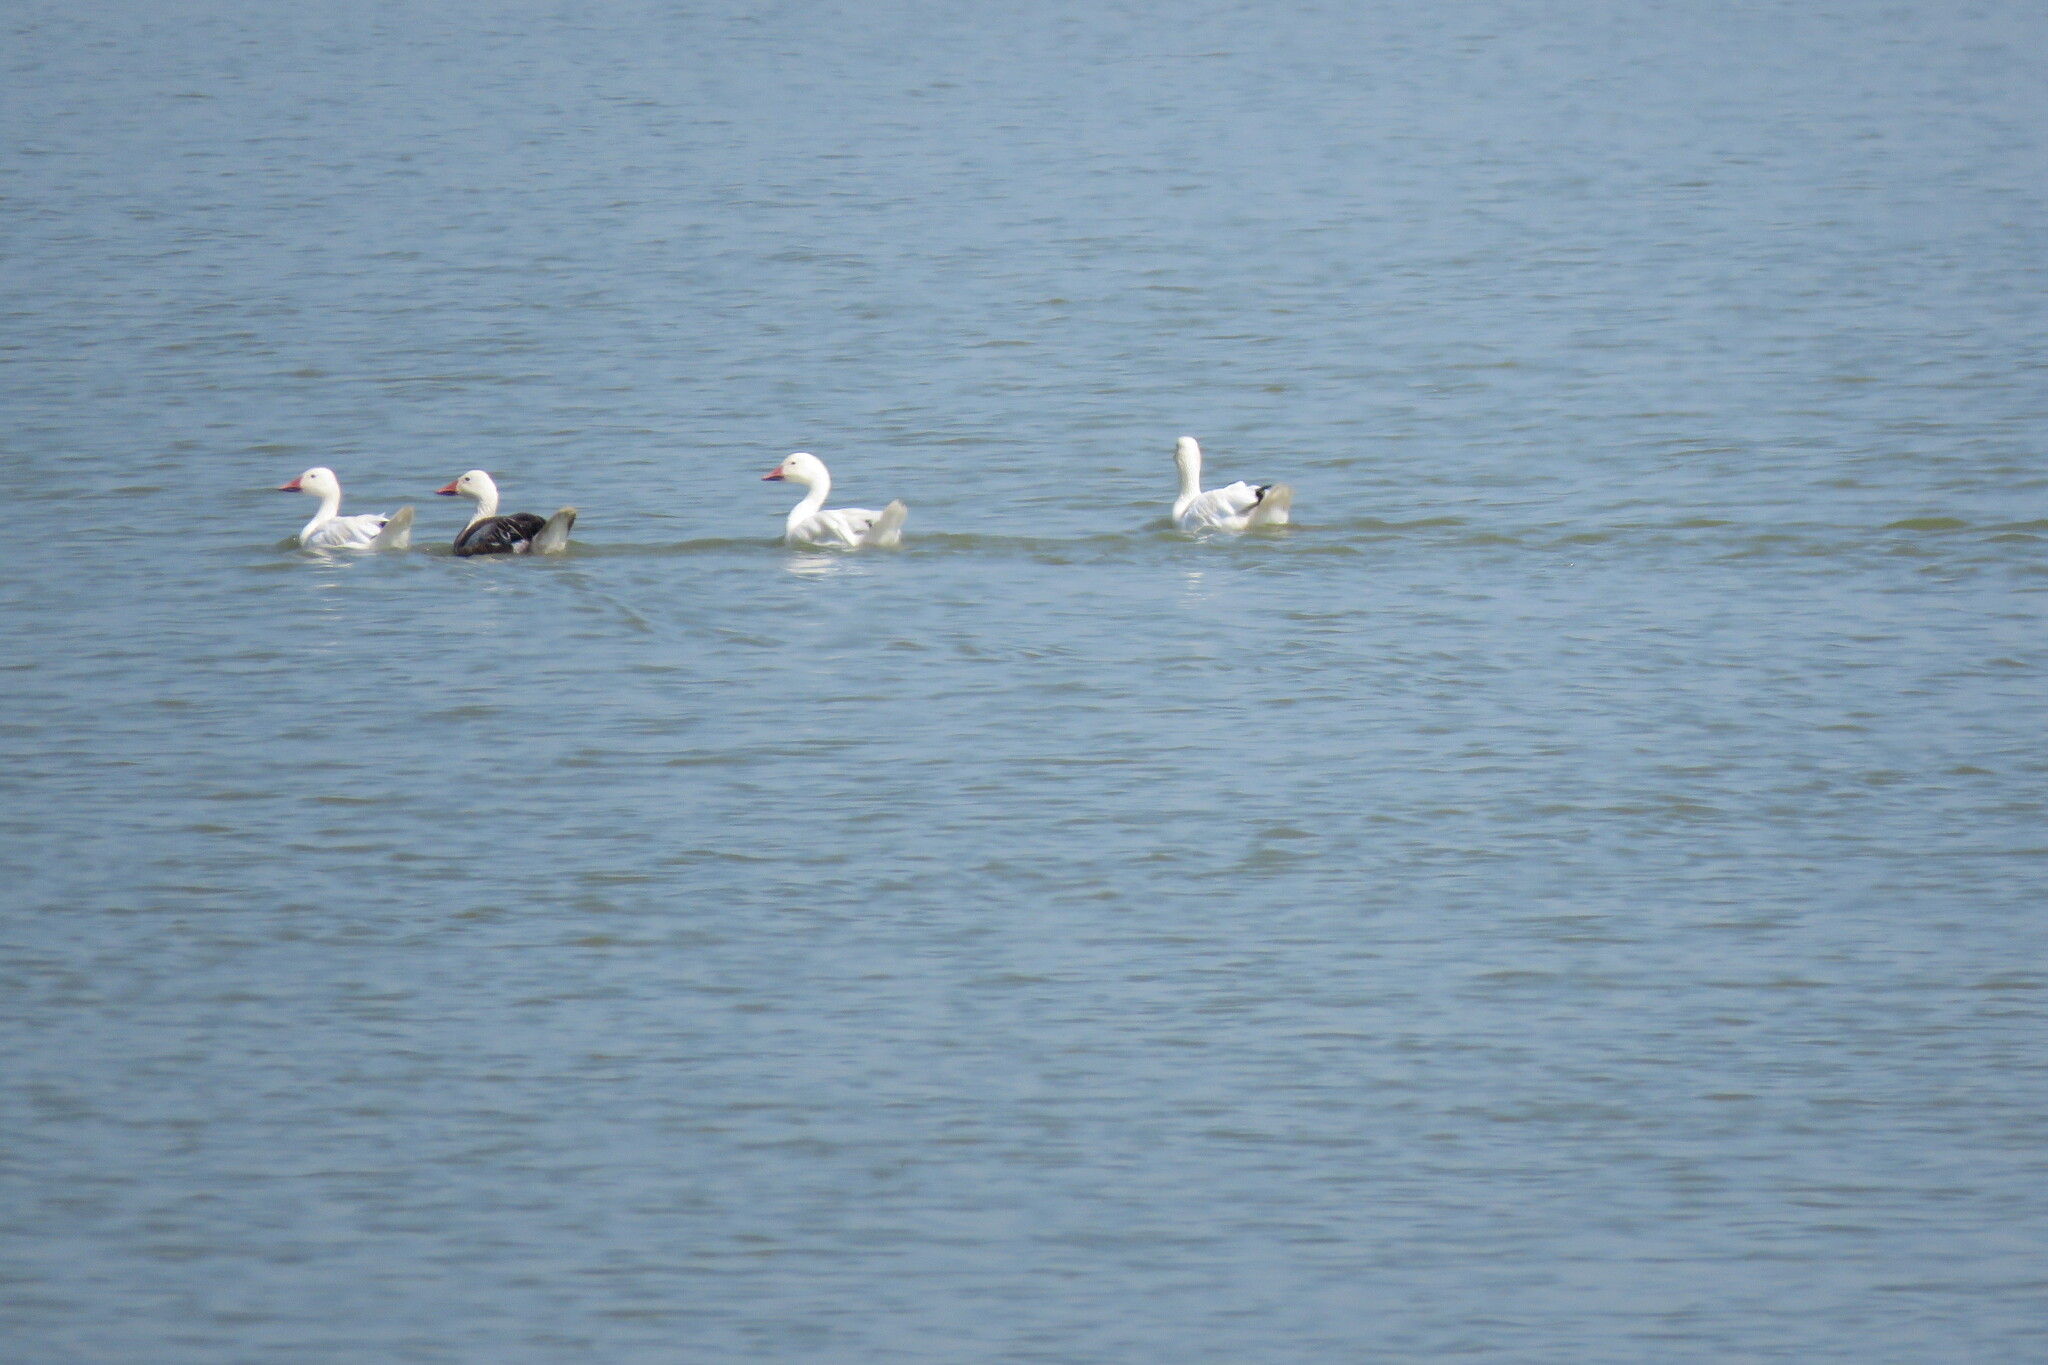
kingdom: Animalia
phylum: Chordata
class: Aves
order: Anseriformes
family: Anatidae
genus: Anser
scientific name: Anser caerulescens
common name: Snow goose
